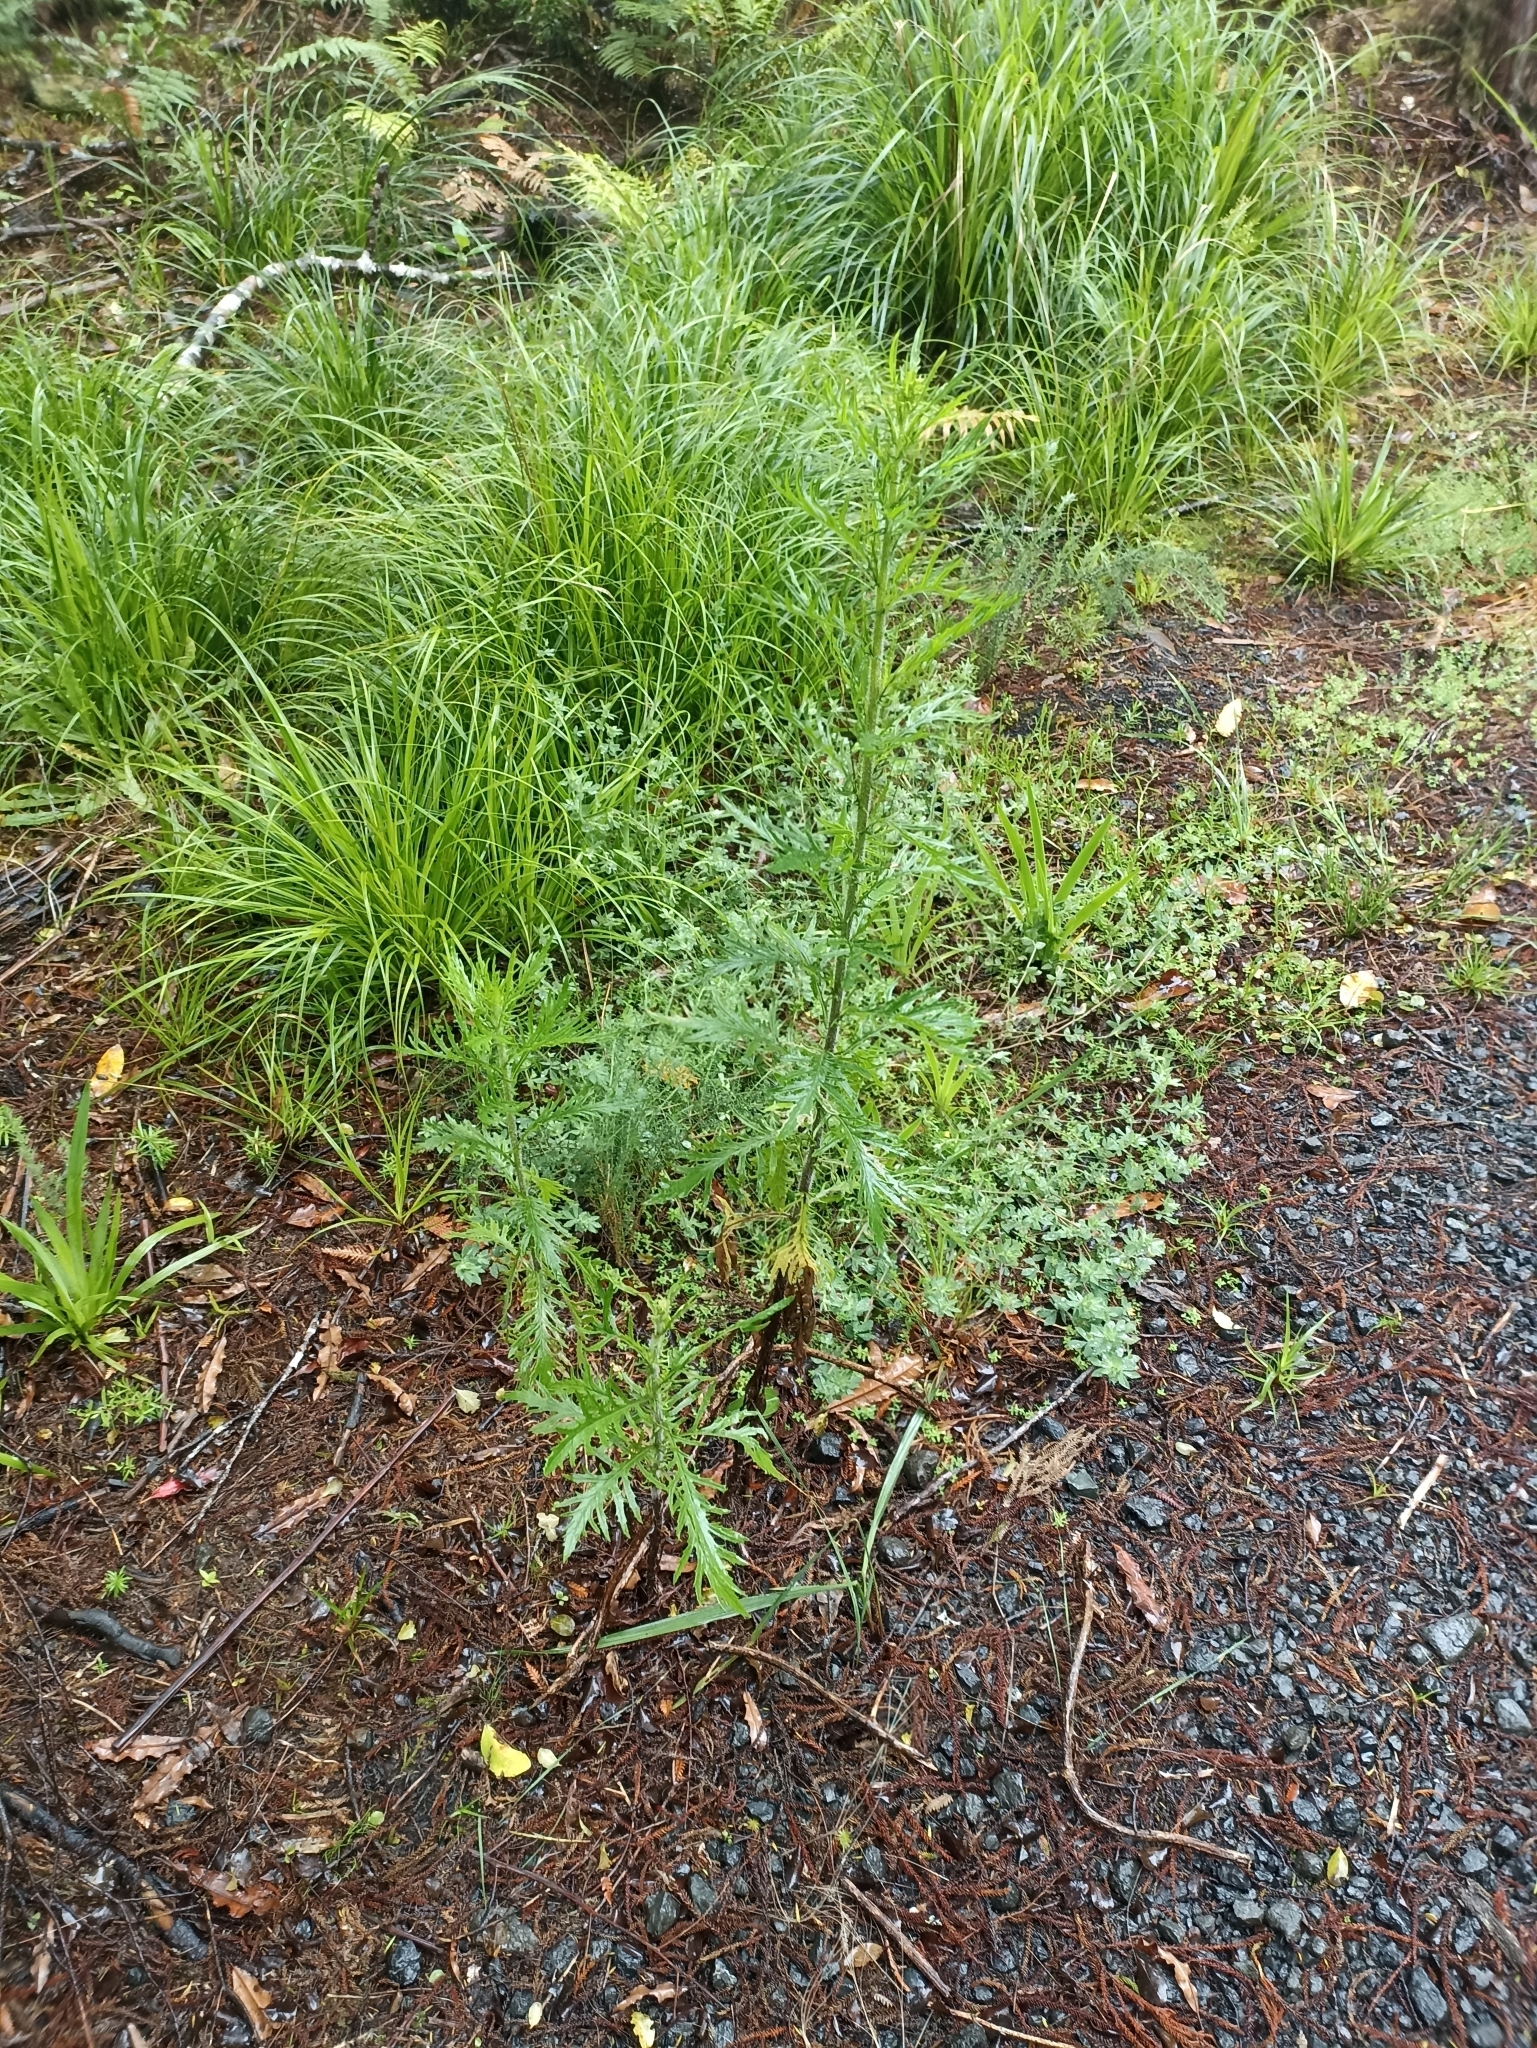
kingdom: Plantae
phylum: Tracheophyta
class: Magnoliopsida
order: Asterales
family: Asteraceae
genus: Senecio
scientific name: Senecio esleri
